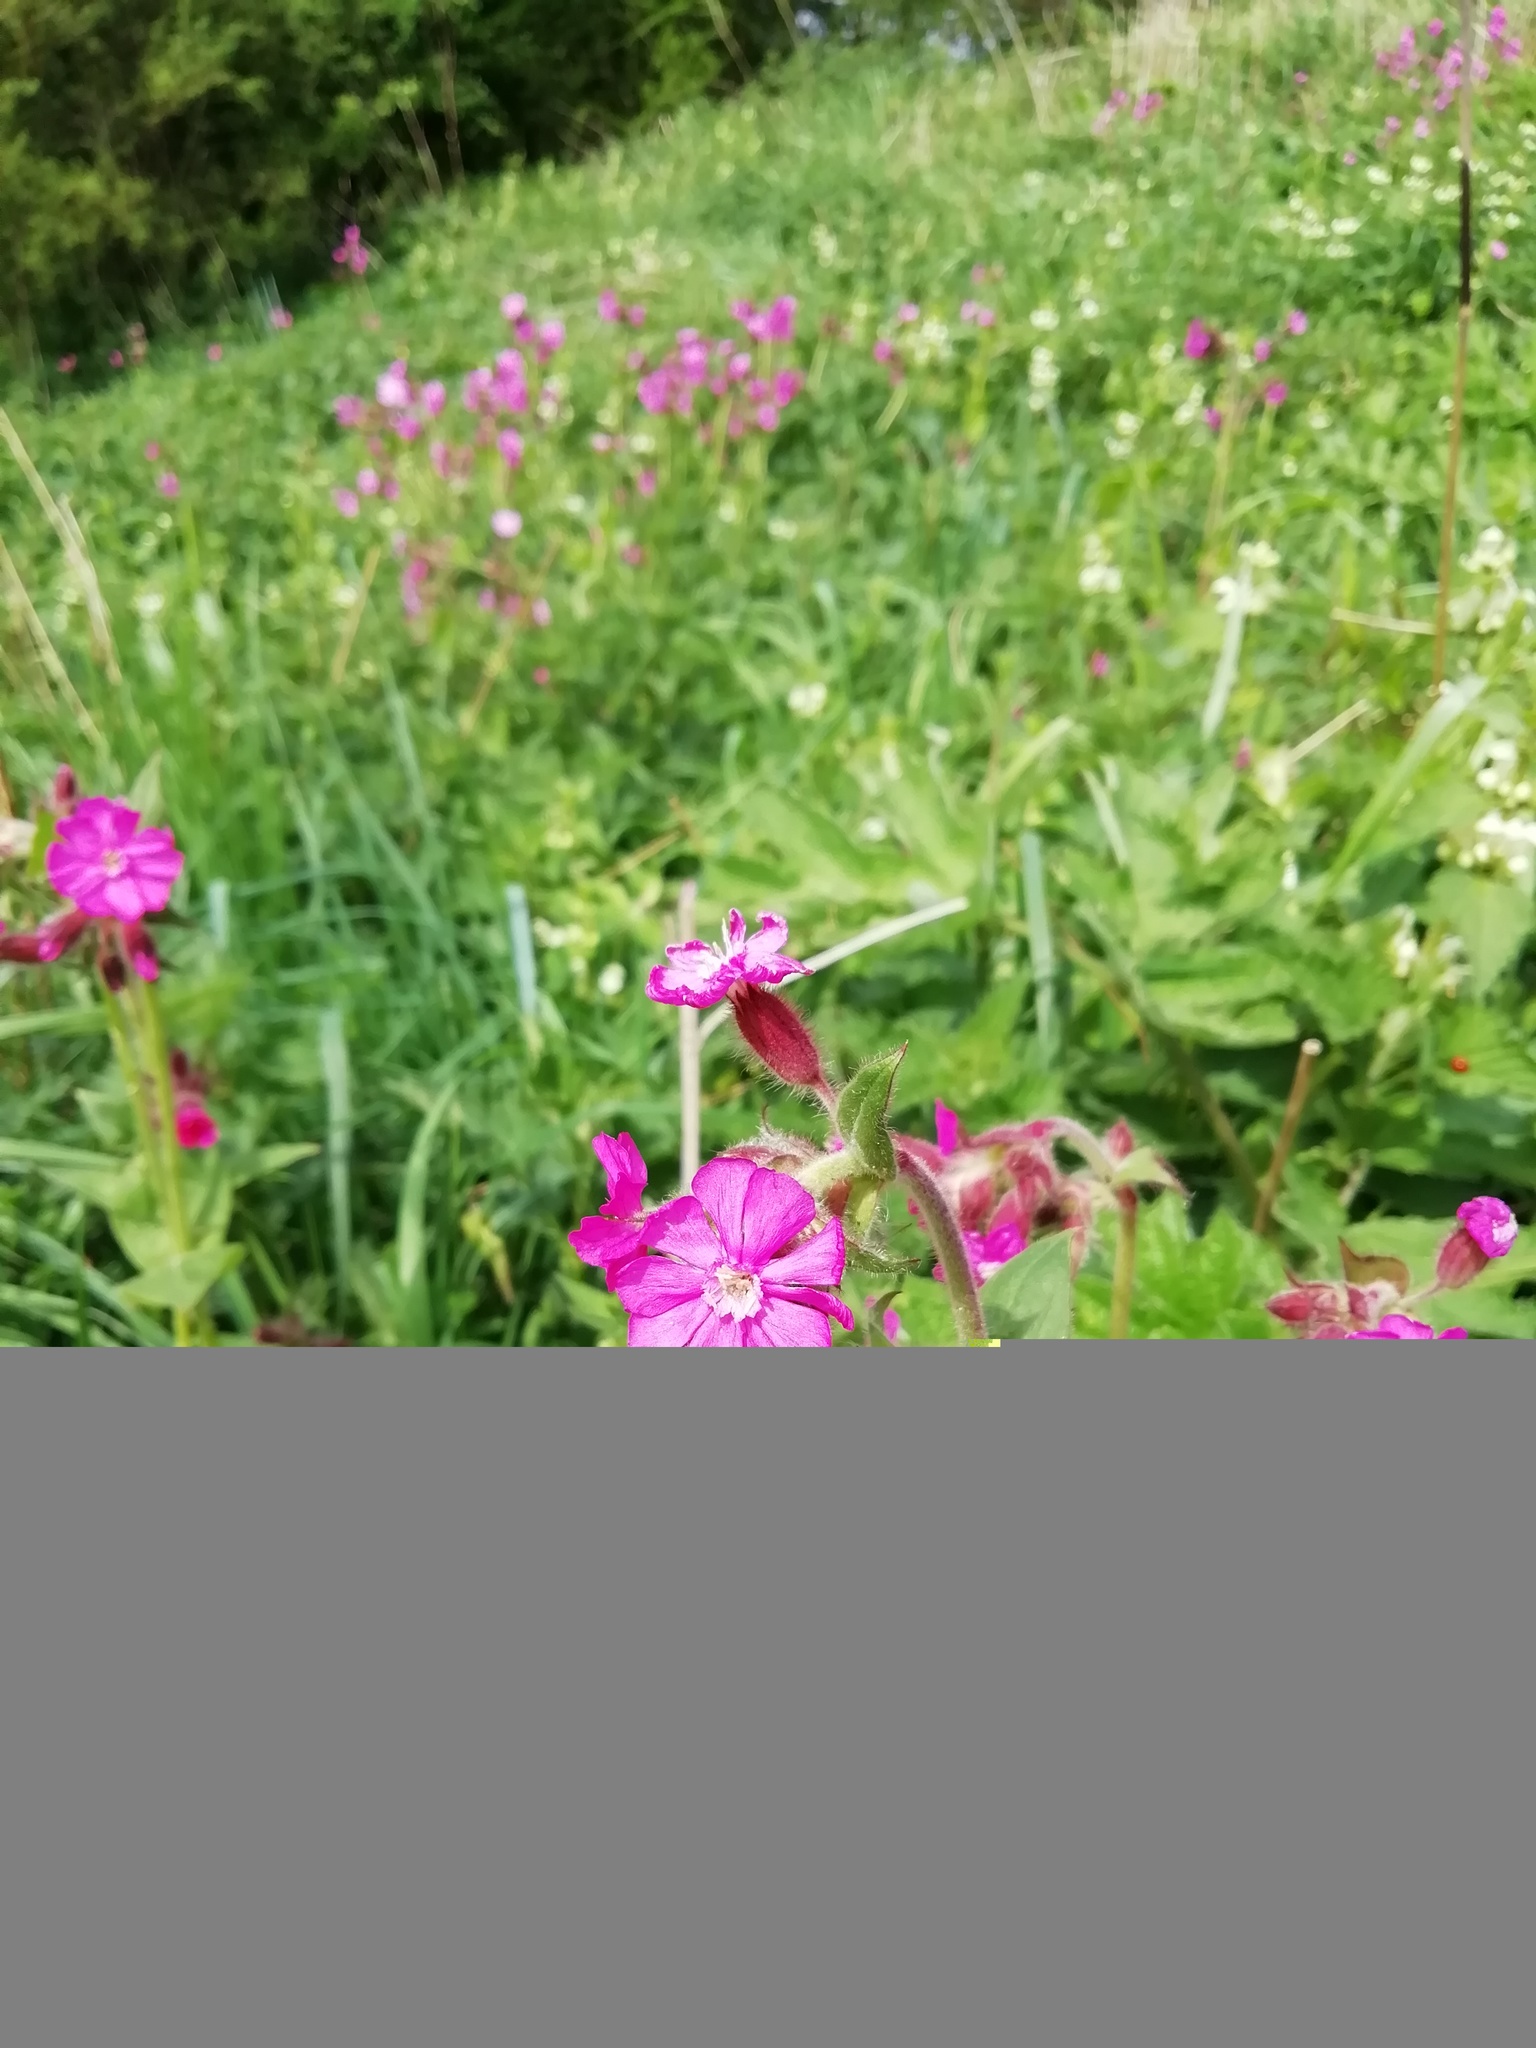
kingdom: Plantae
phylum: Tracheophyta
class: Magnoliopsida
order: Caryophyllales
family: Caryophyllaceae
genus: Silene
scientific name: Silene dioica
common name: Red campion
